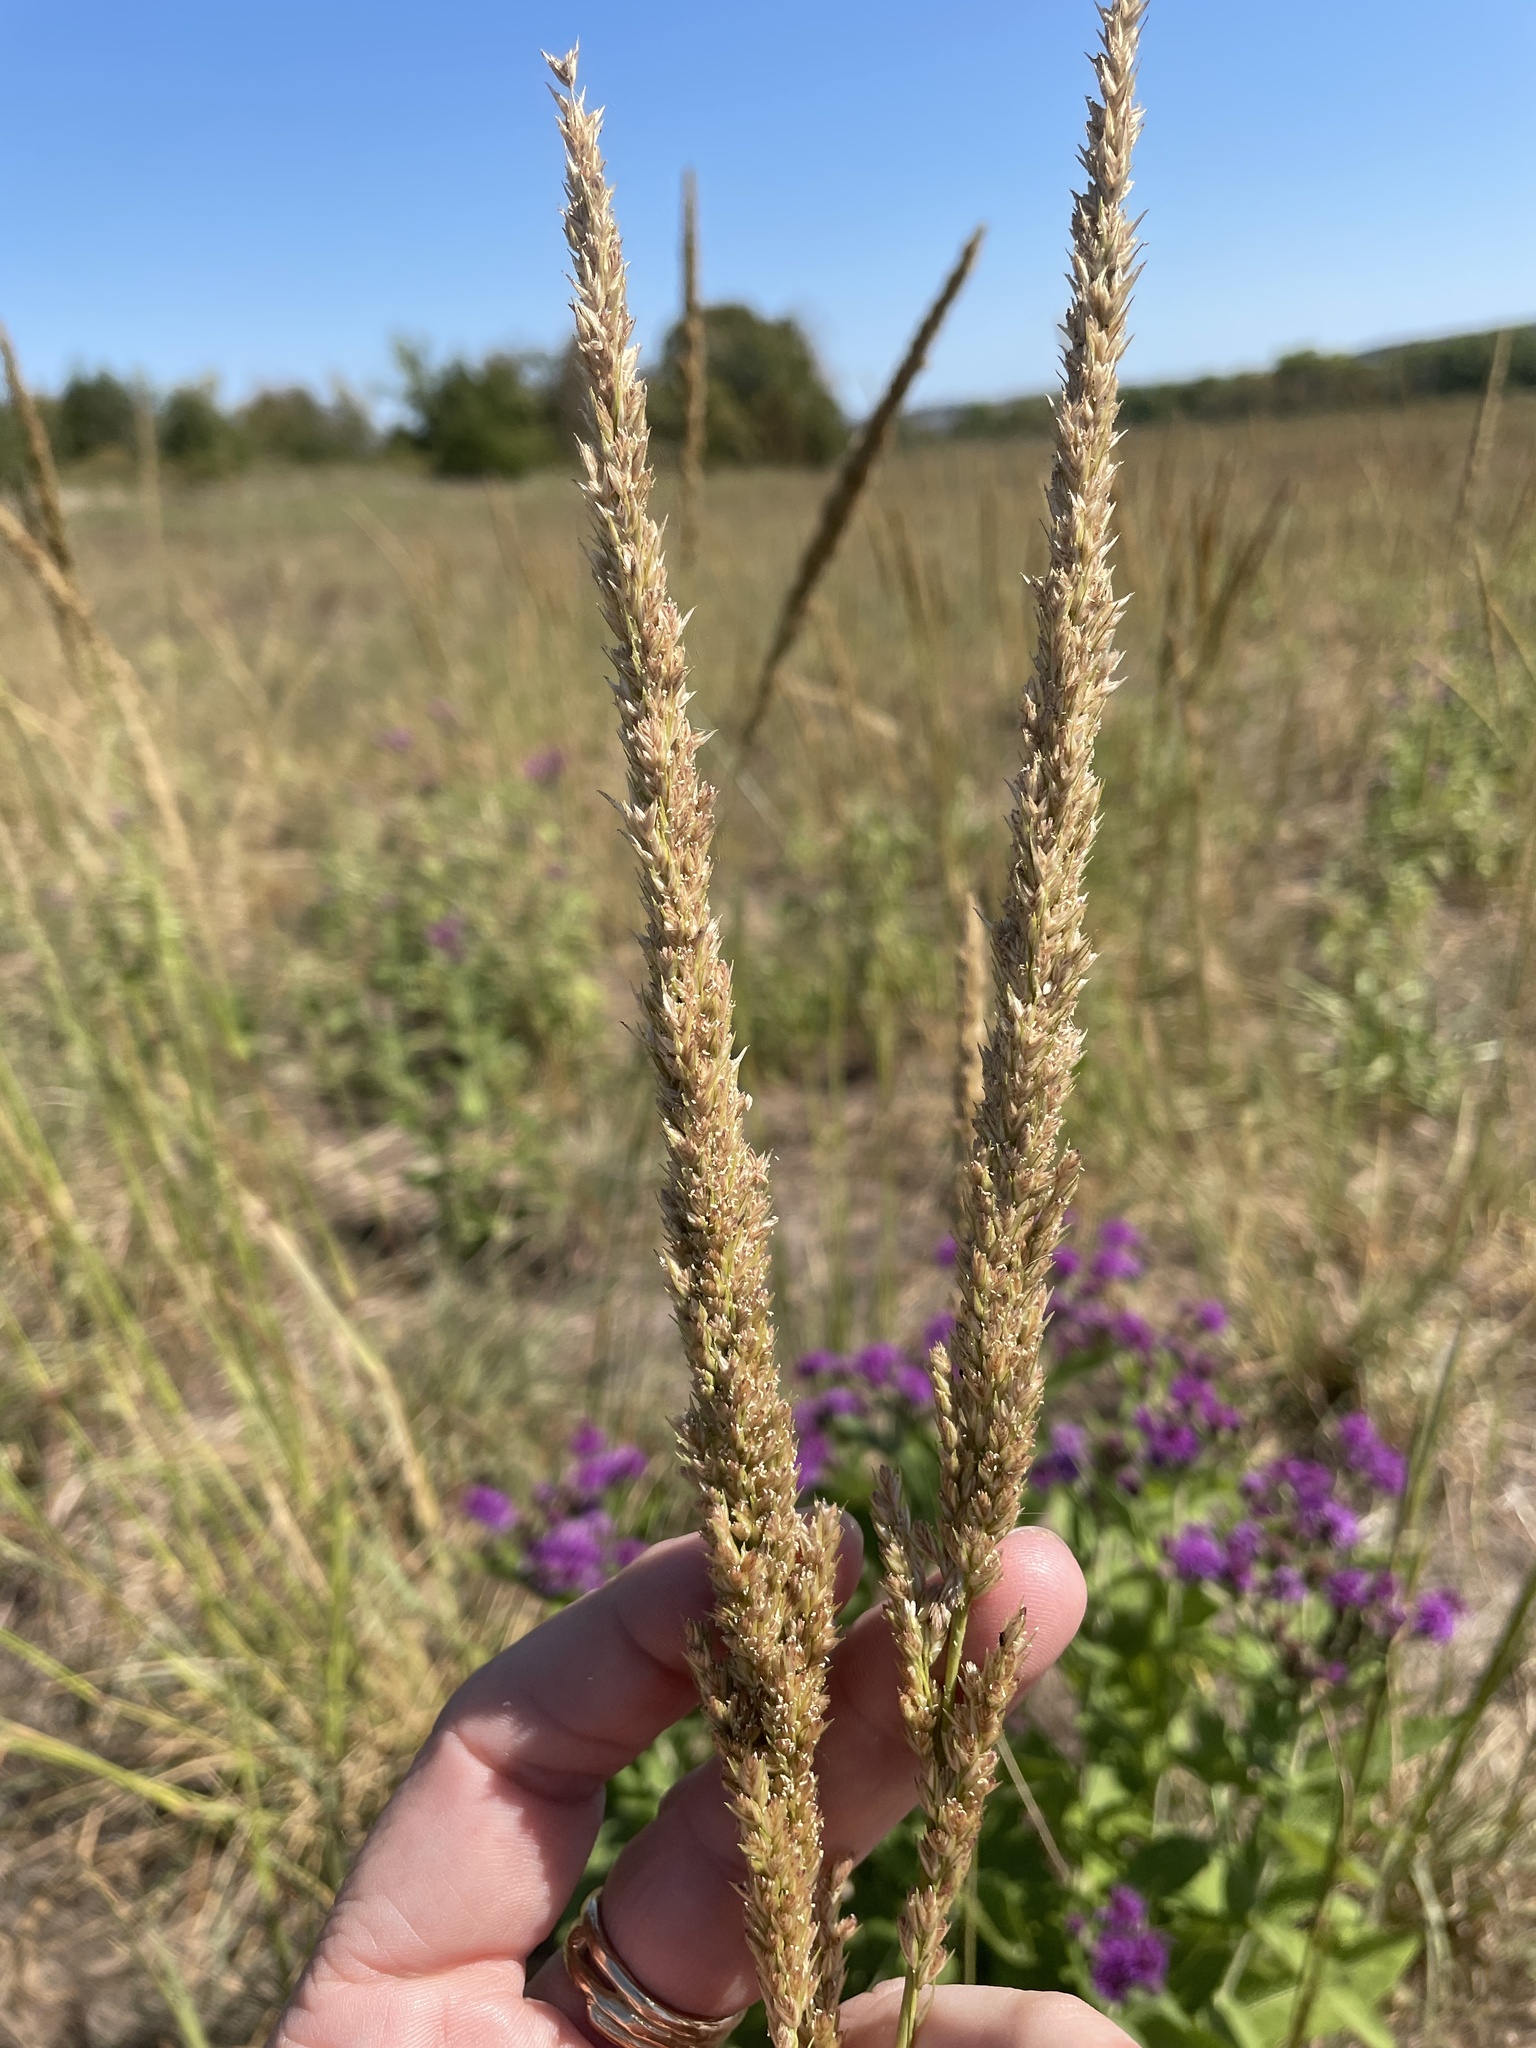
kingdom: Plantae
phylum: Tracheophyta
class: Liliopsida
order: Poales
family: Poaceae
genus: Tridens
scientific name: Tridens strictus
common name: Long-spike tridens
